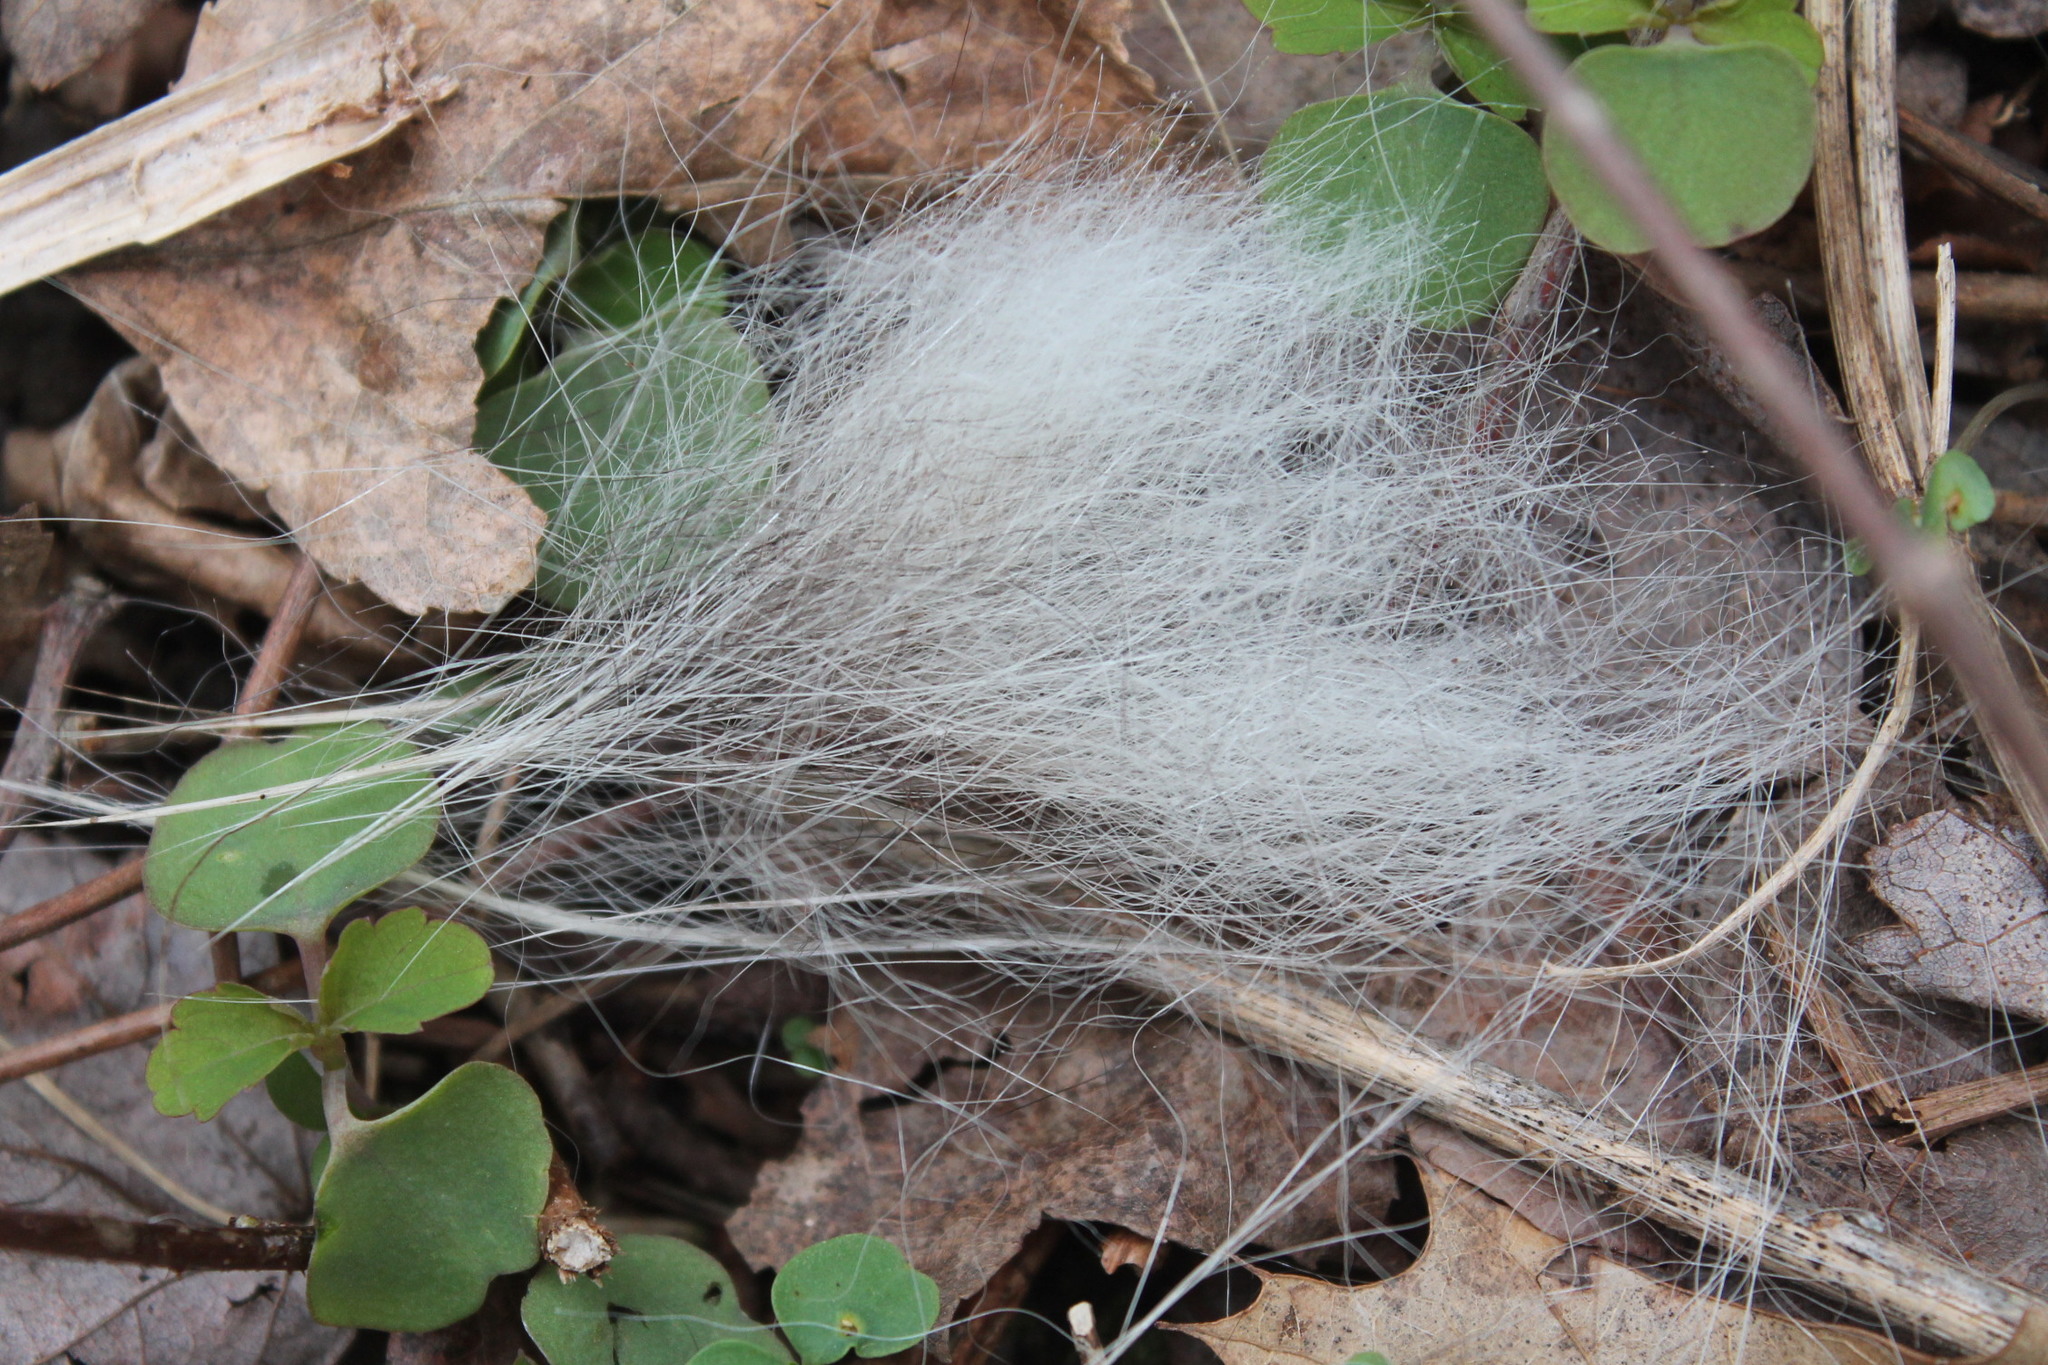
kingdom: Animalia
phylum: Chordata
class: Mammalia
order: Lagomorpha
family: Leporidae
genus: Sylvilagus
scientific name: Sylvilagus floridanus
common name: Eastern cottontail
